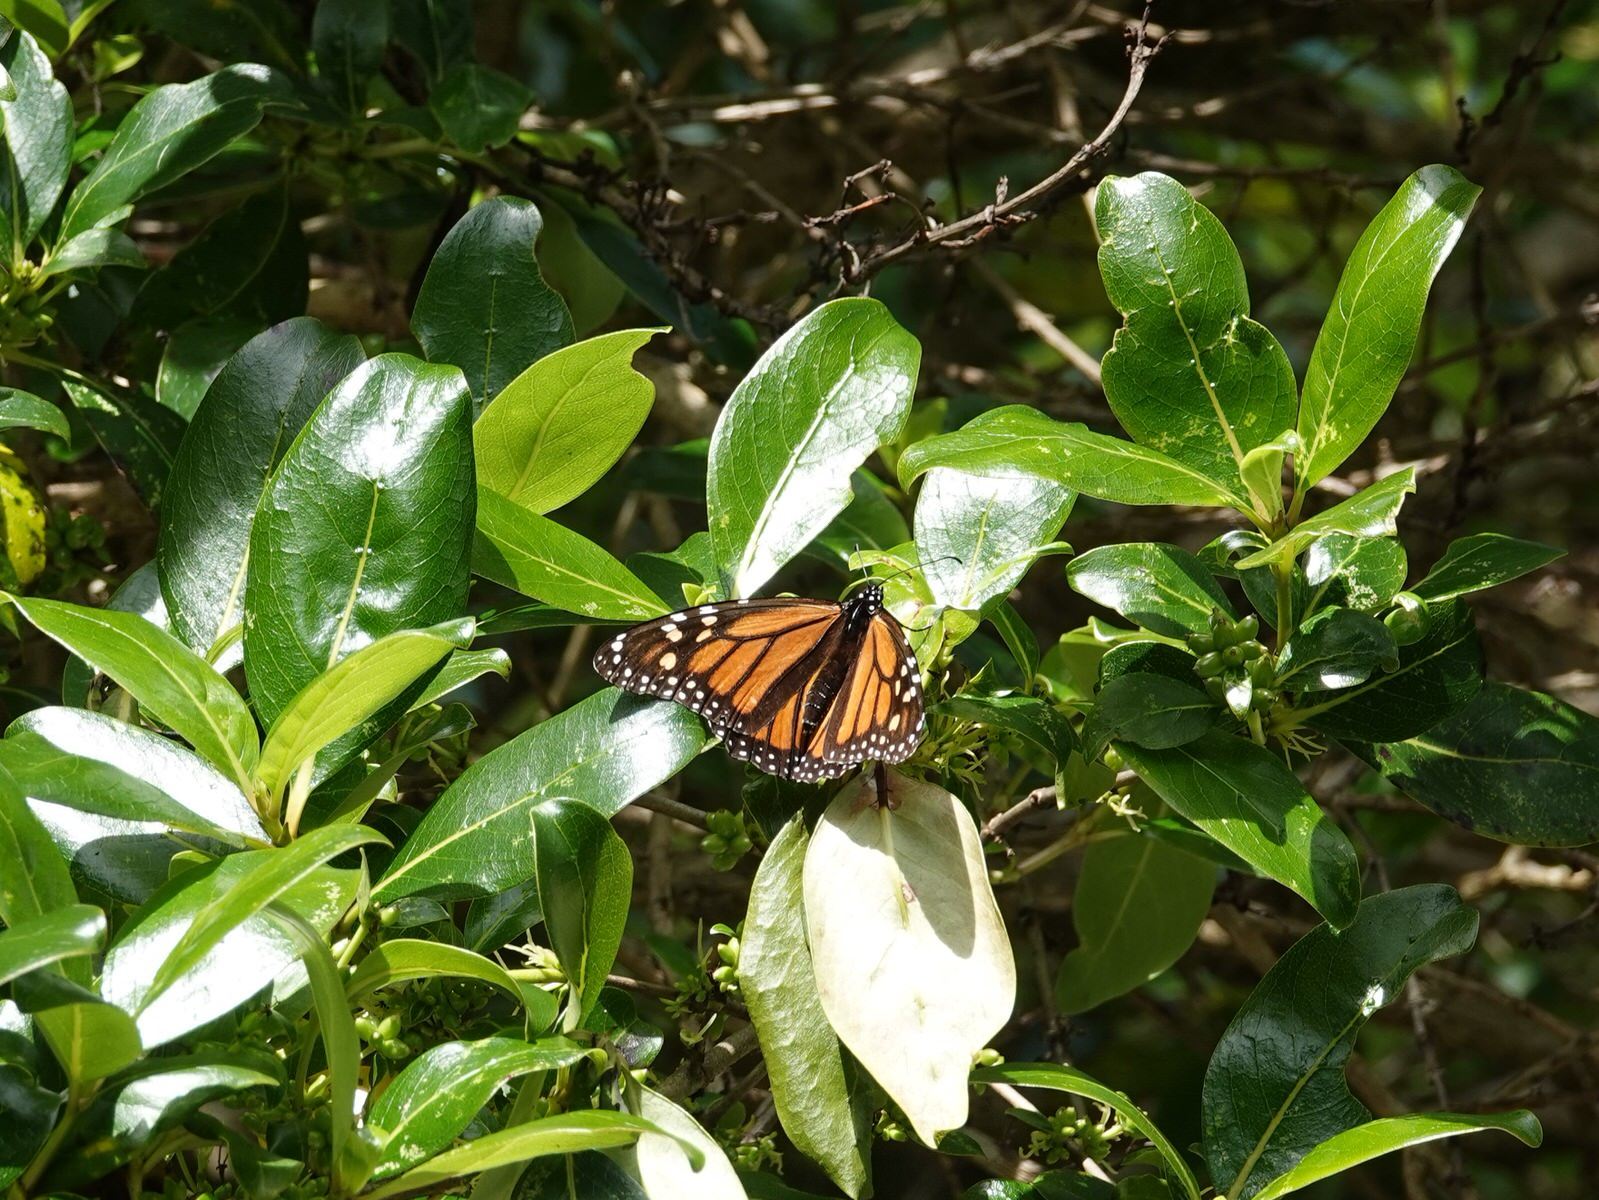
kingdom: Animalia
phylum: Arthropoda
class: Insecta
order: Lepidoptera
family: Nymphalidae
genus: Danaus
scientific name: Danaus plexippus
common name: Monarch
